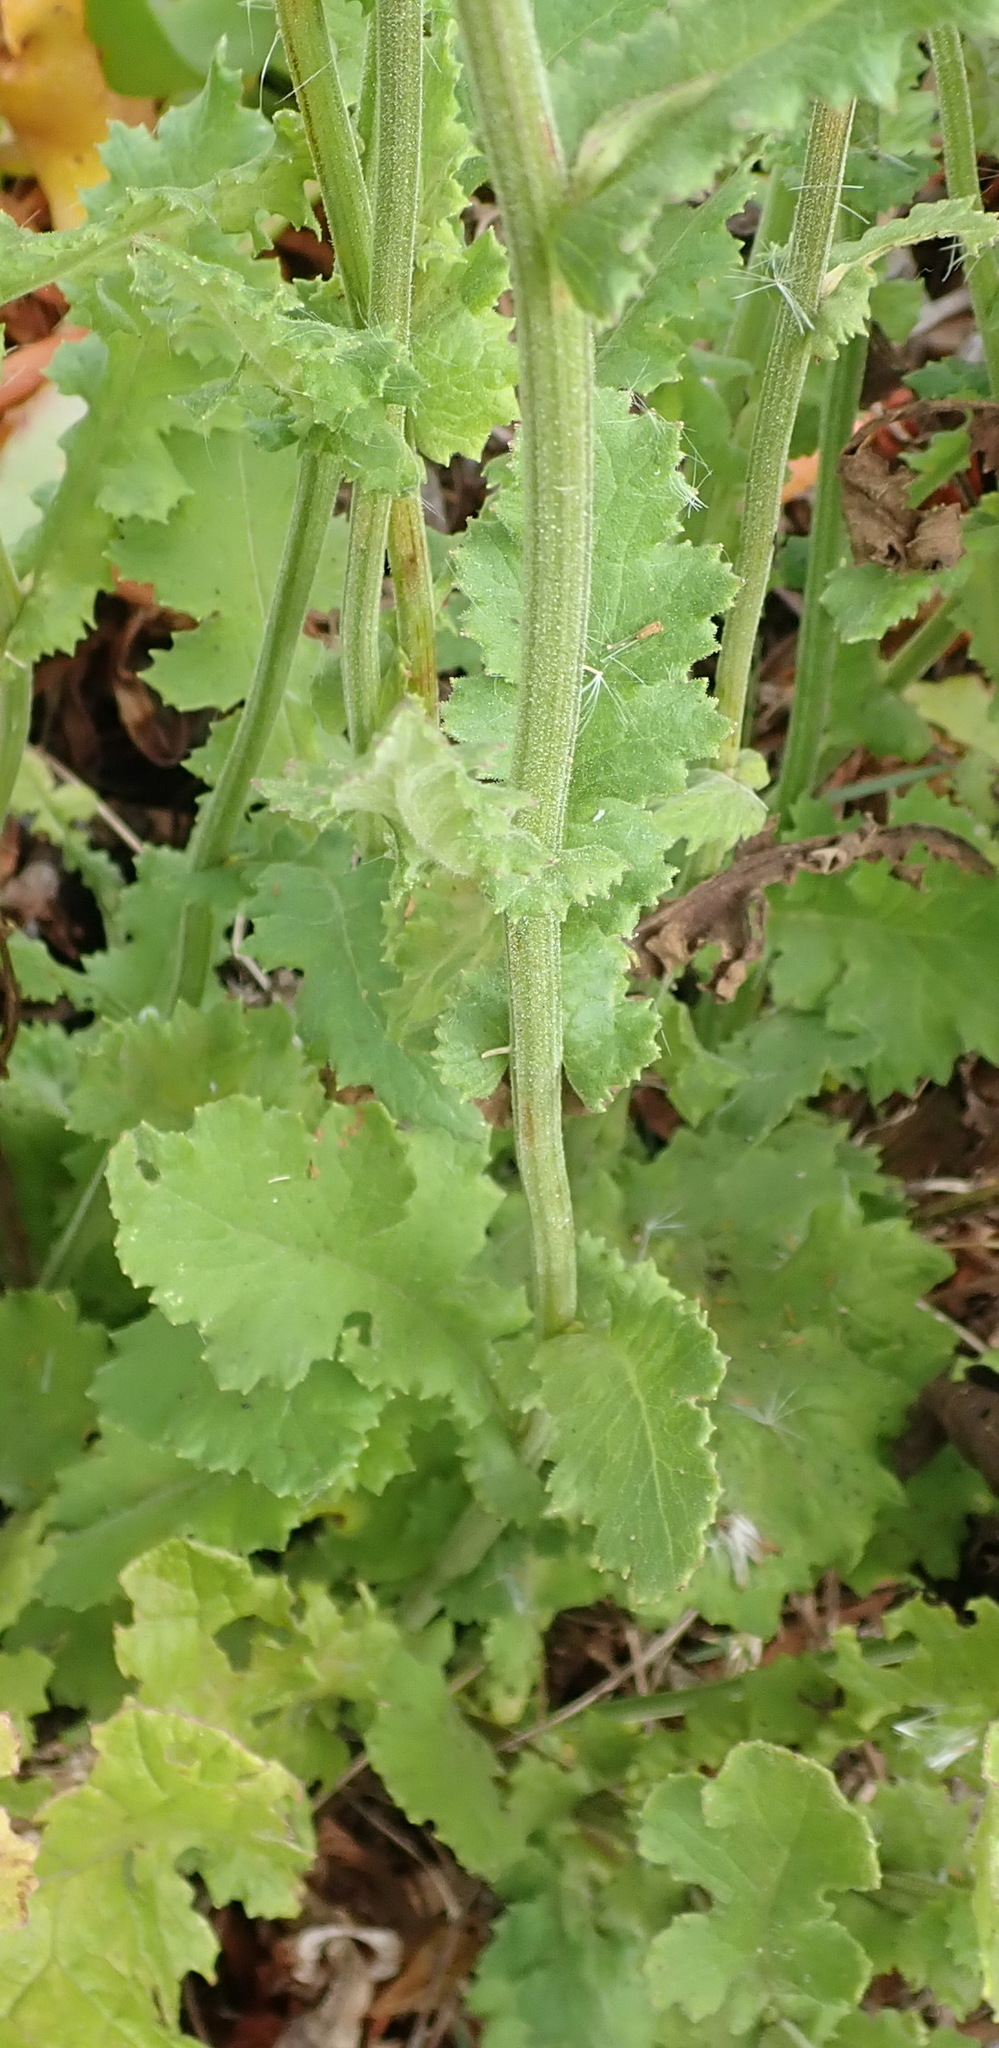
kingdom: Plantae
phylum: Tracheophyta
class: Magnoliopsida
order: Asterales
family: Asteraceae
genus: Senecio
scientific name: Senecio purpureus
